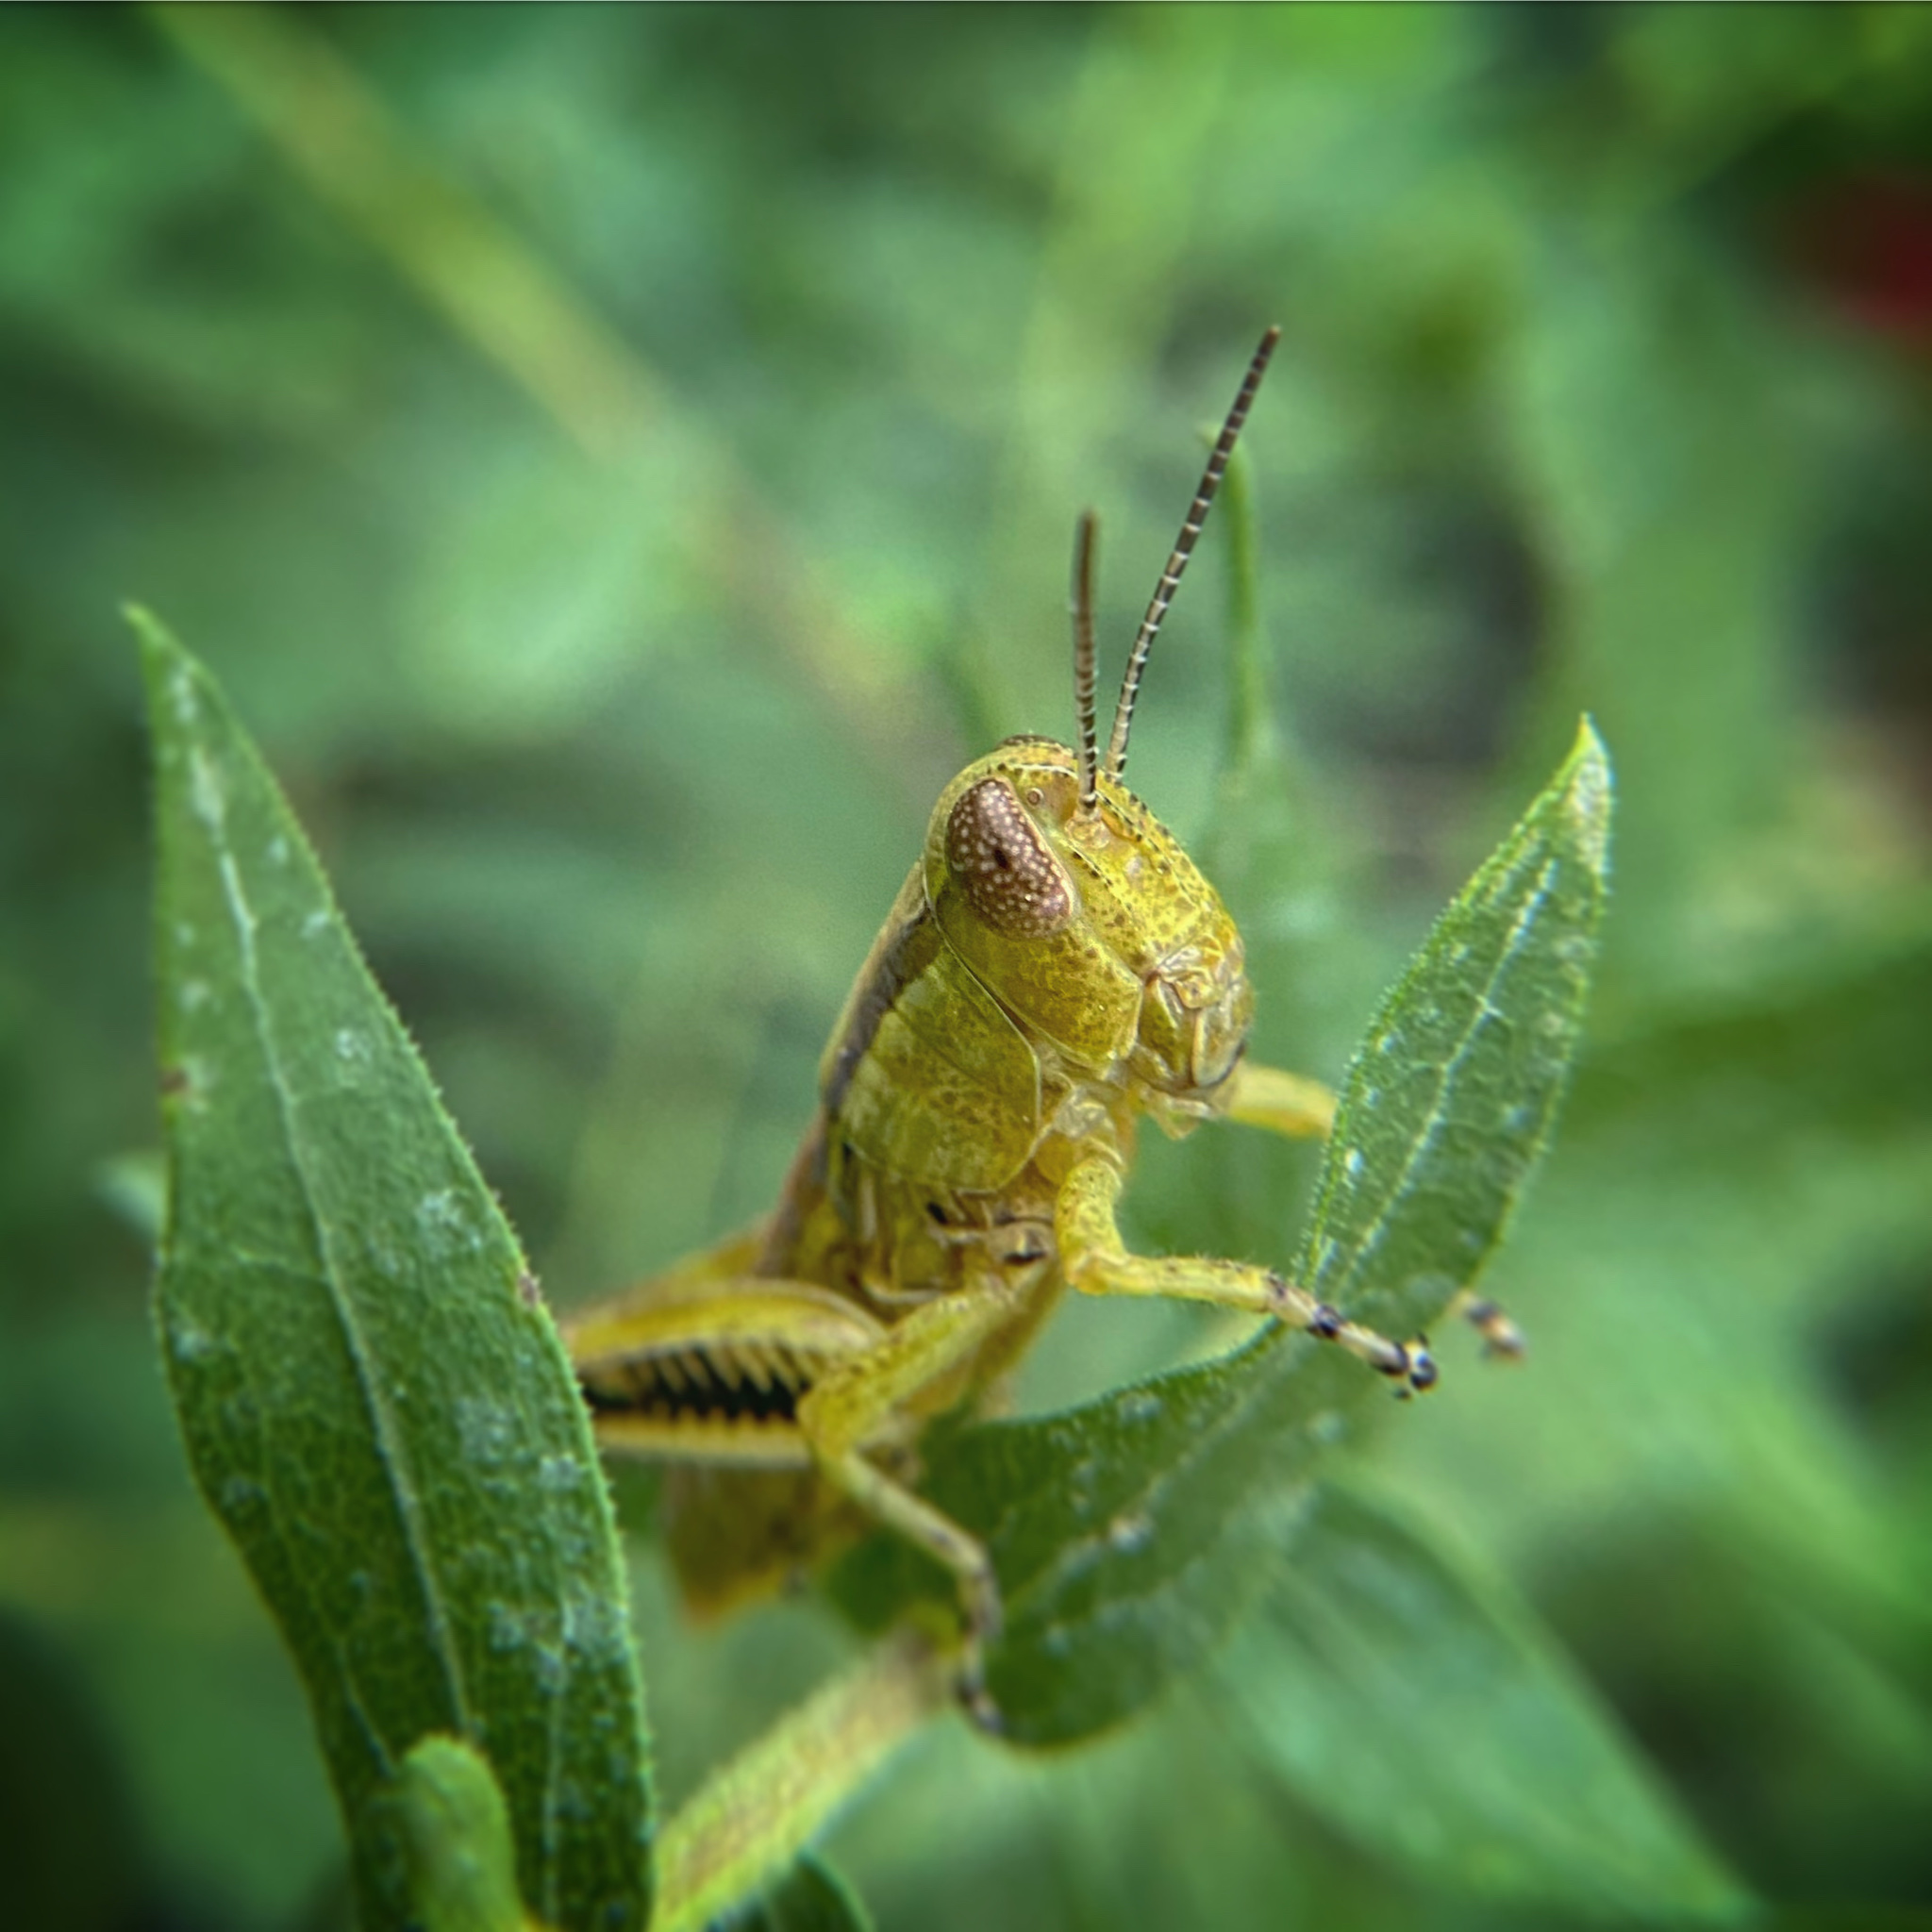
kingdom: Animalia
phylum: Arthropoda
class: Insecta
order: Orthoptera
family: Acrididae
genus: Melanoplus
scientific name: Melanoplus differentialis
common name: Differential grasshopper
